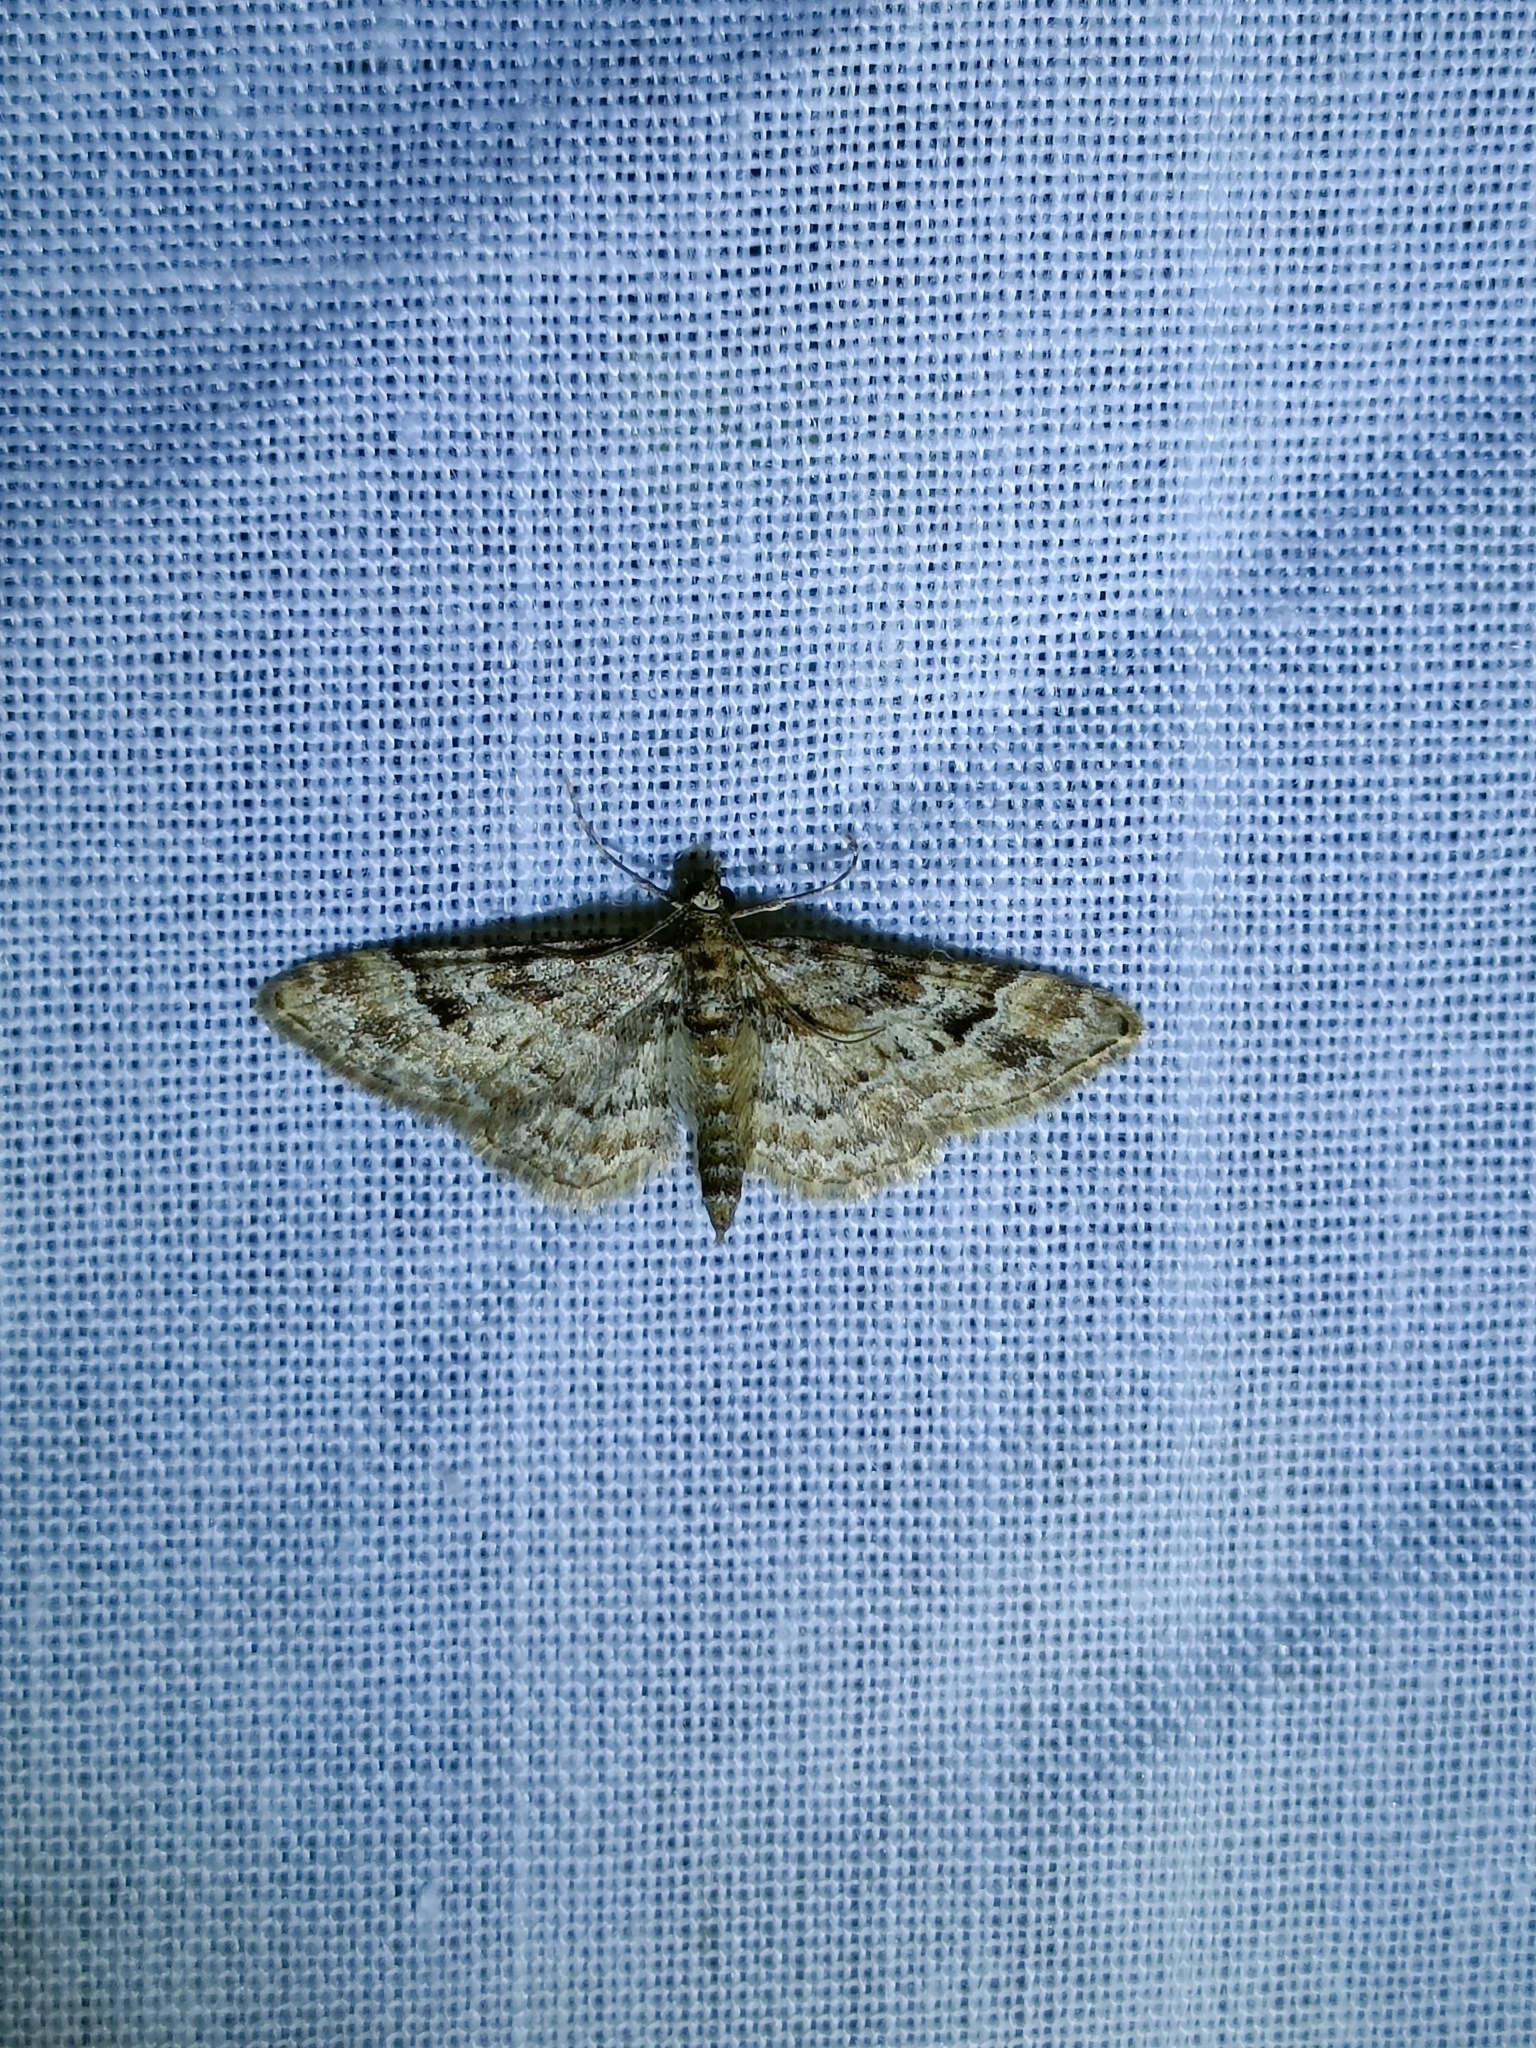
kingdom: Animalia
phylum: Arthropoda
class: Insecta
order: Lepidoptera
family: Geometridae
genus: Gymnoscelis
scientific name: Gymnoscelis rufifasciata
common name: Double-striped pug
